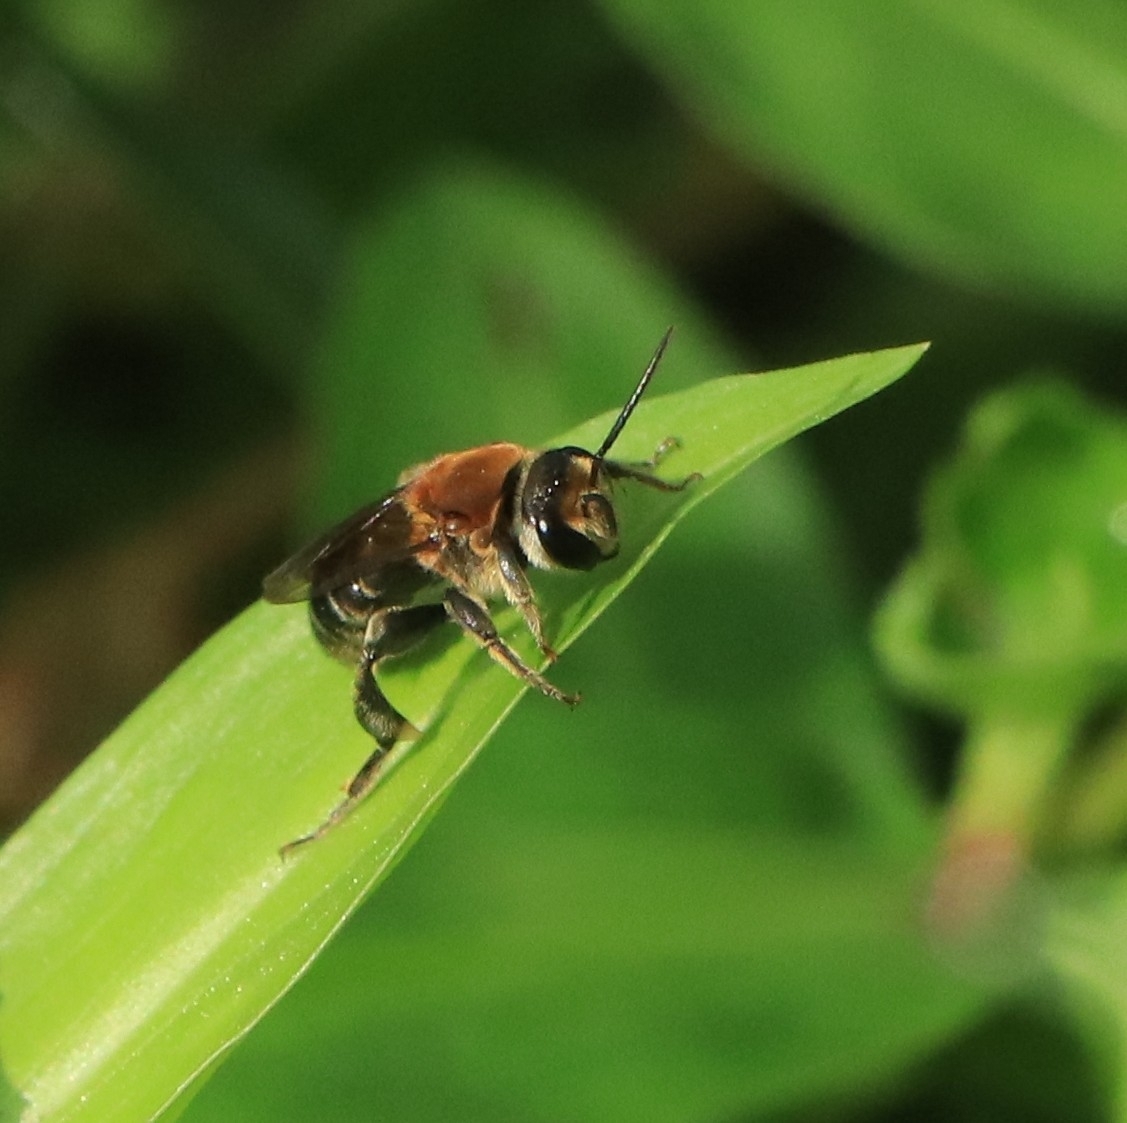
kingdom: Animalia
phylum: Arthropoda
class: Insecta
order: Hymenoptera
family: Halictidae
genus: Nomia
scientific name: Nomia thoracica
